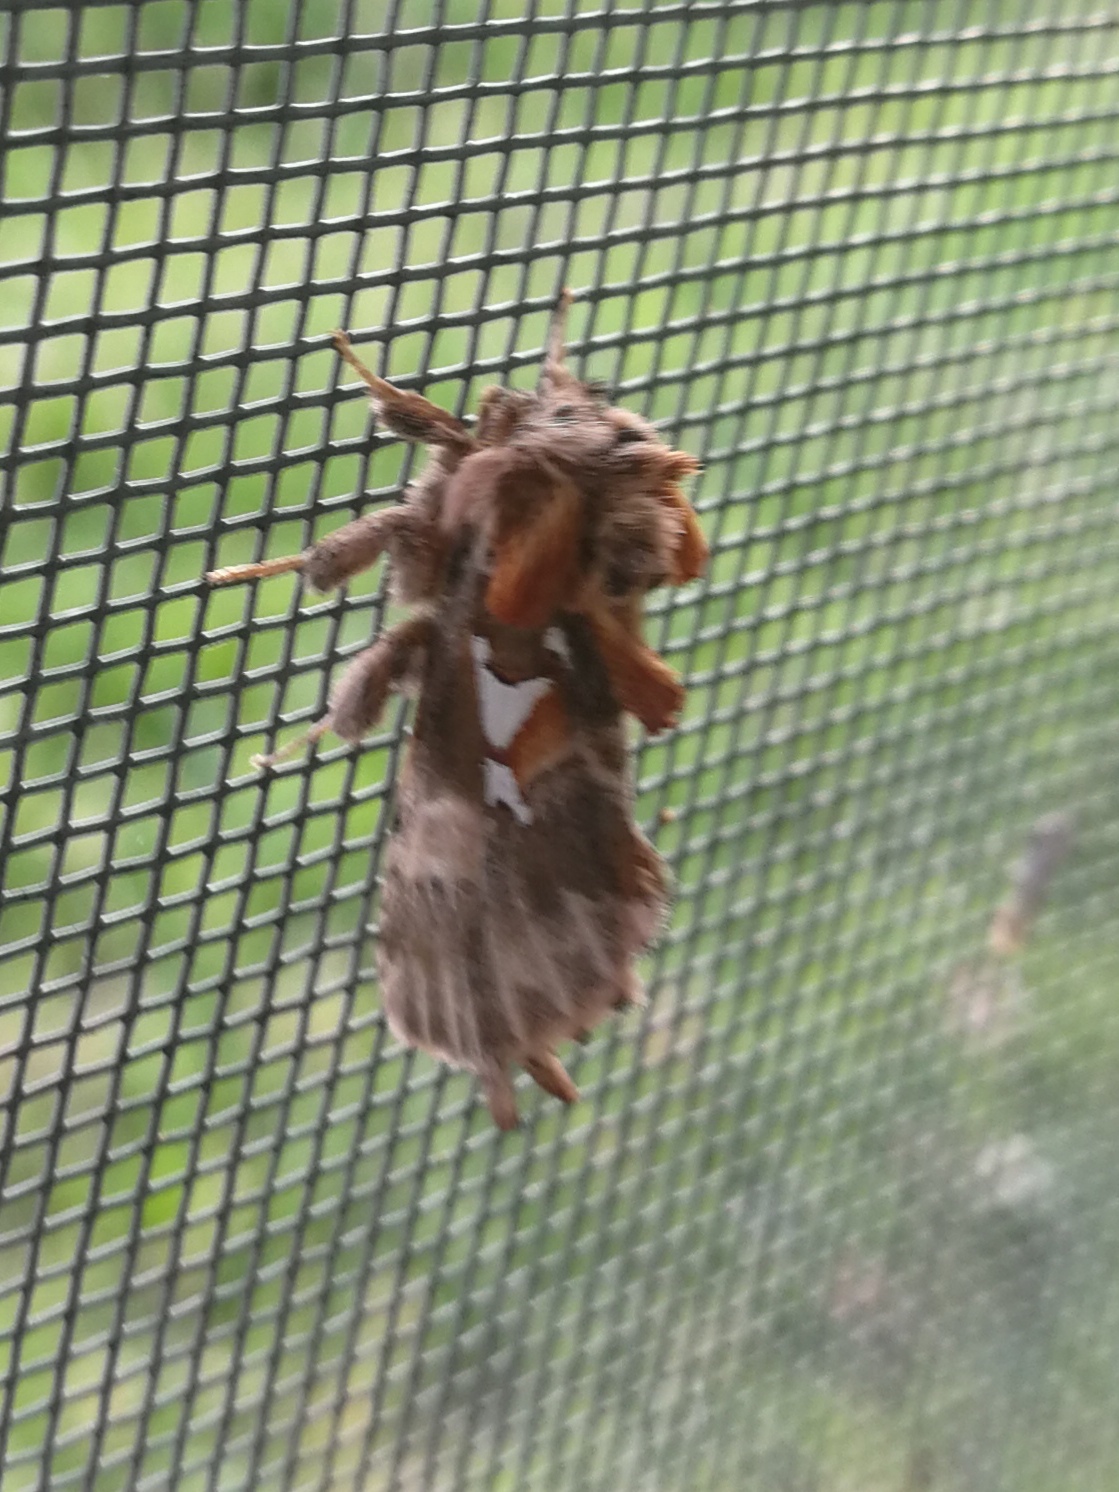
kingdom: Animalia
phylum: Arthropoda
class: Insecta
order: Lepidoptera
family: Notodontidae
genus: Spatalia
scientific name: Spatalia argentina
